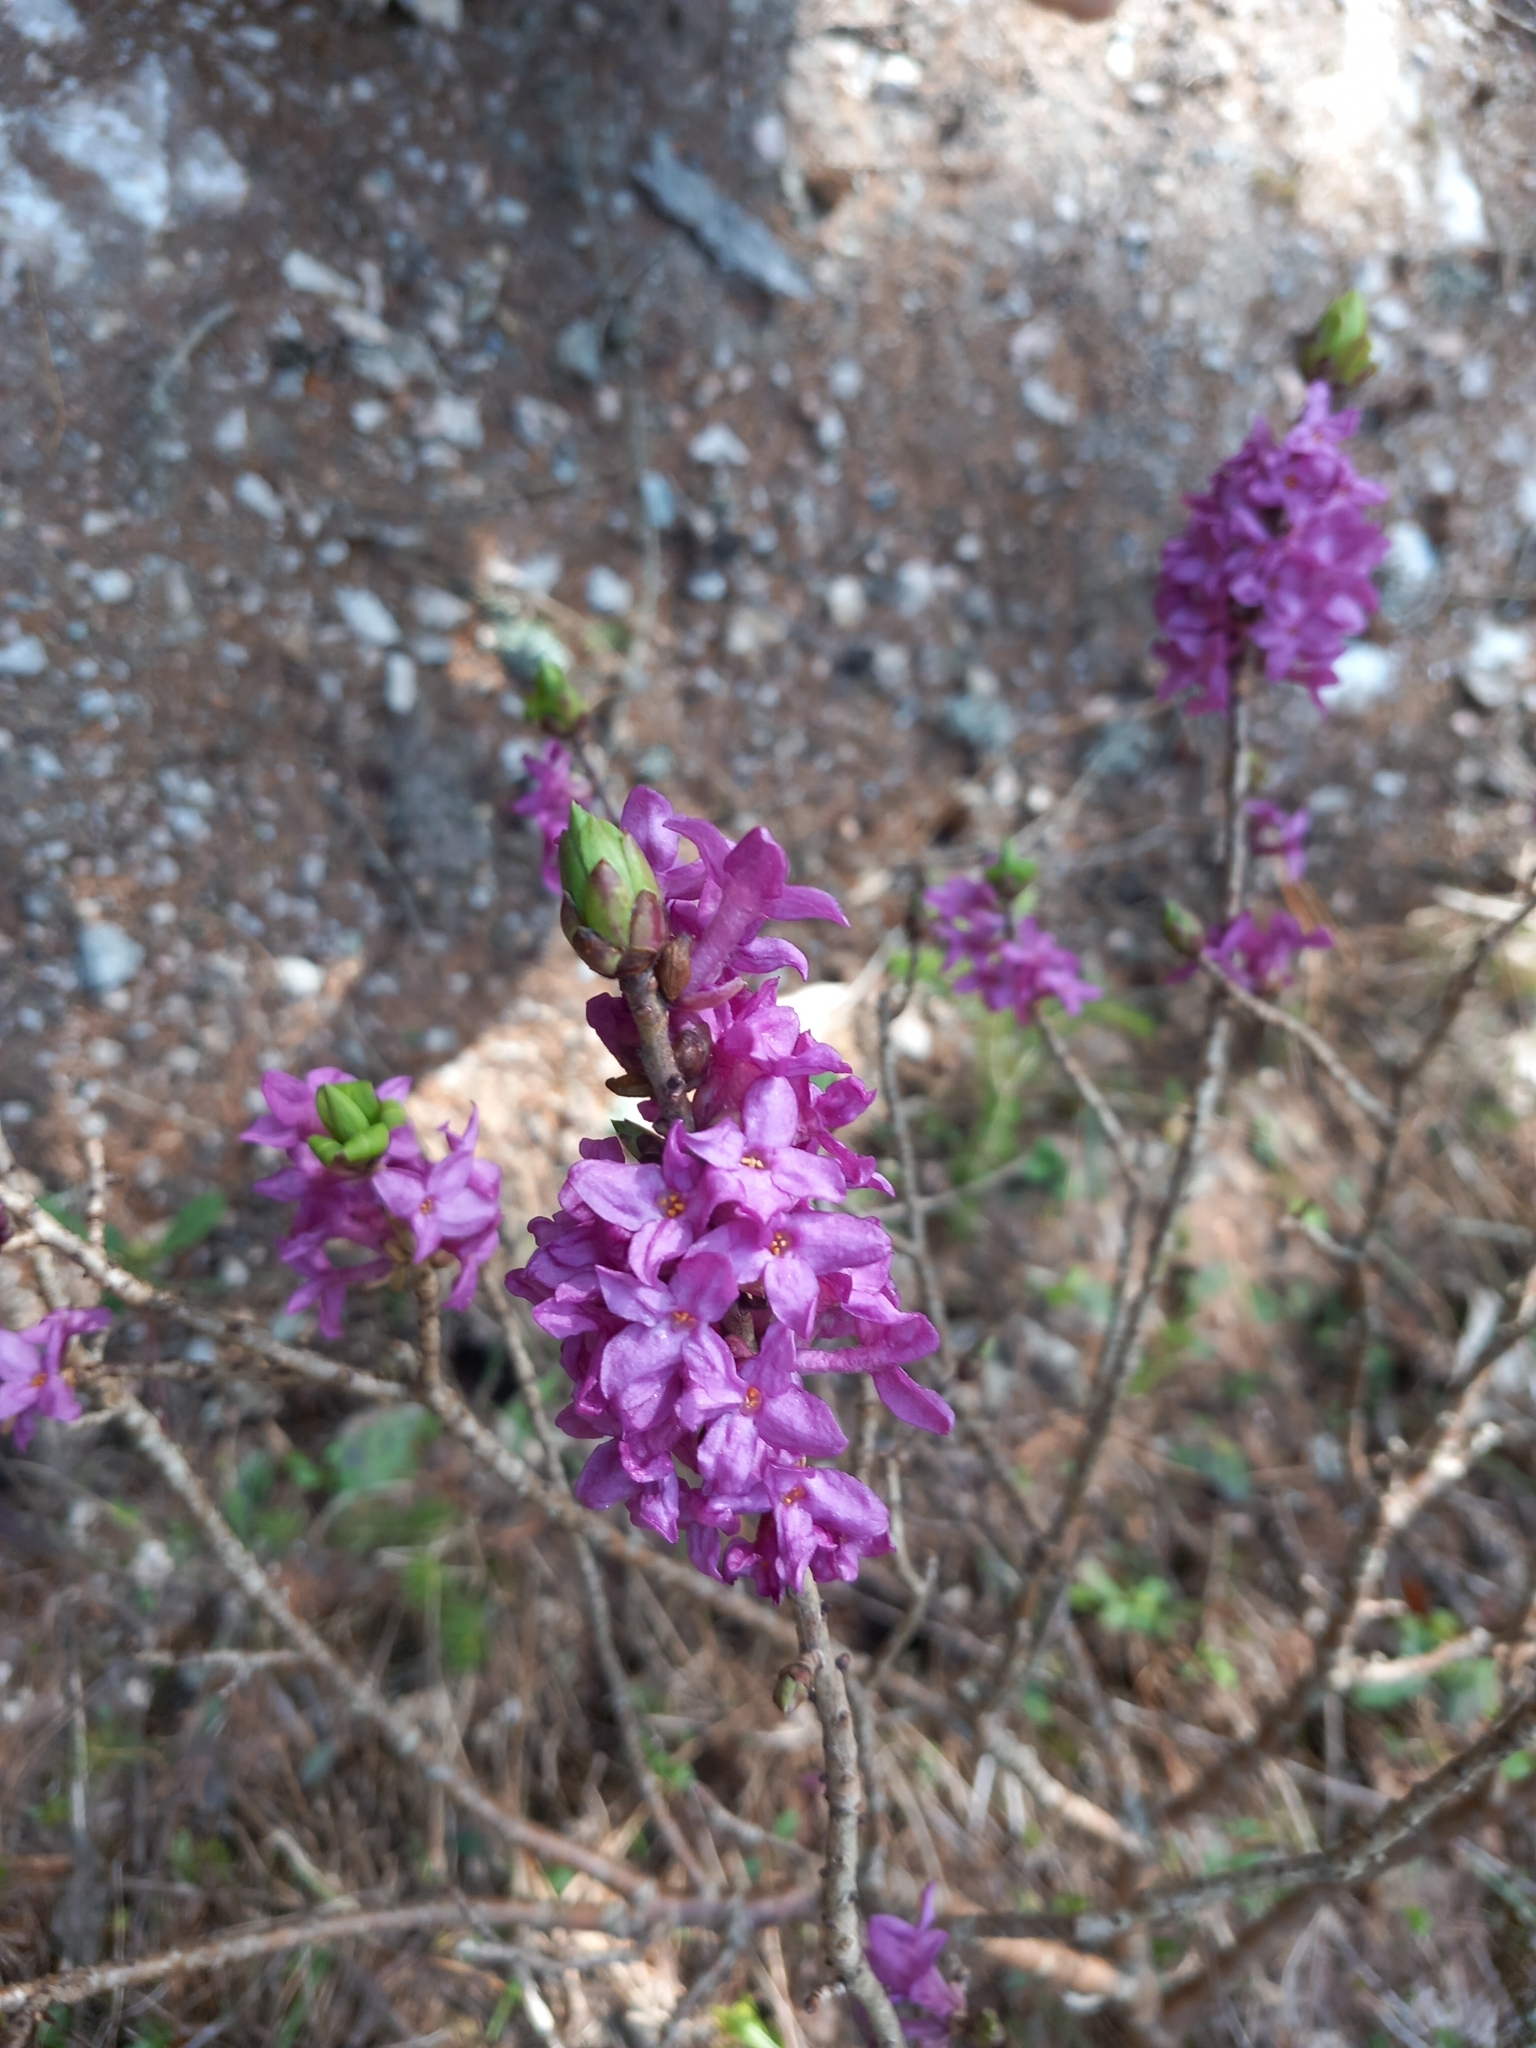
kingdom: Plantae
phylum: Tracheophyta
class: Magnoliopsida
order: Malvales
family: Thymelaeaceae
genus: Daphne
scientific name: Daphne mezereum
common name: Mezereon
